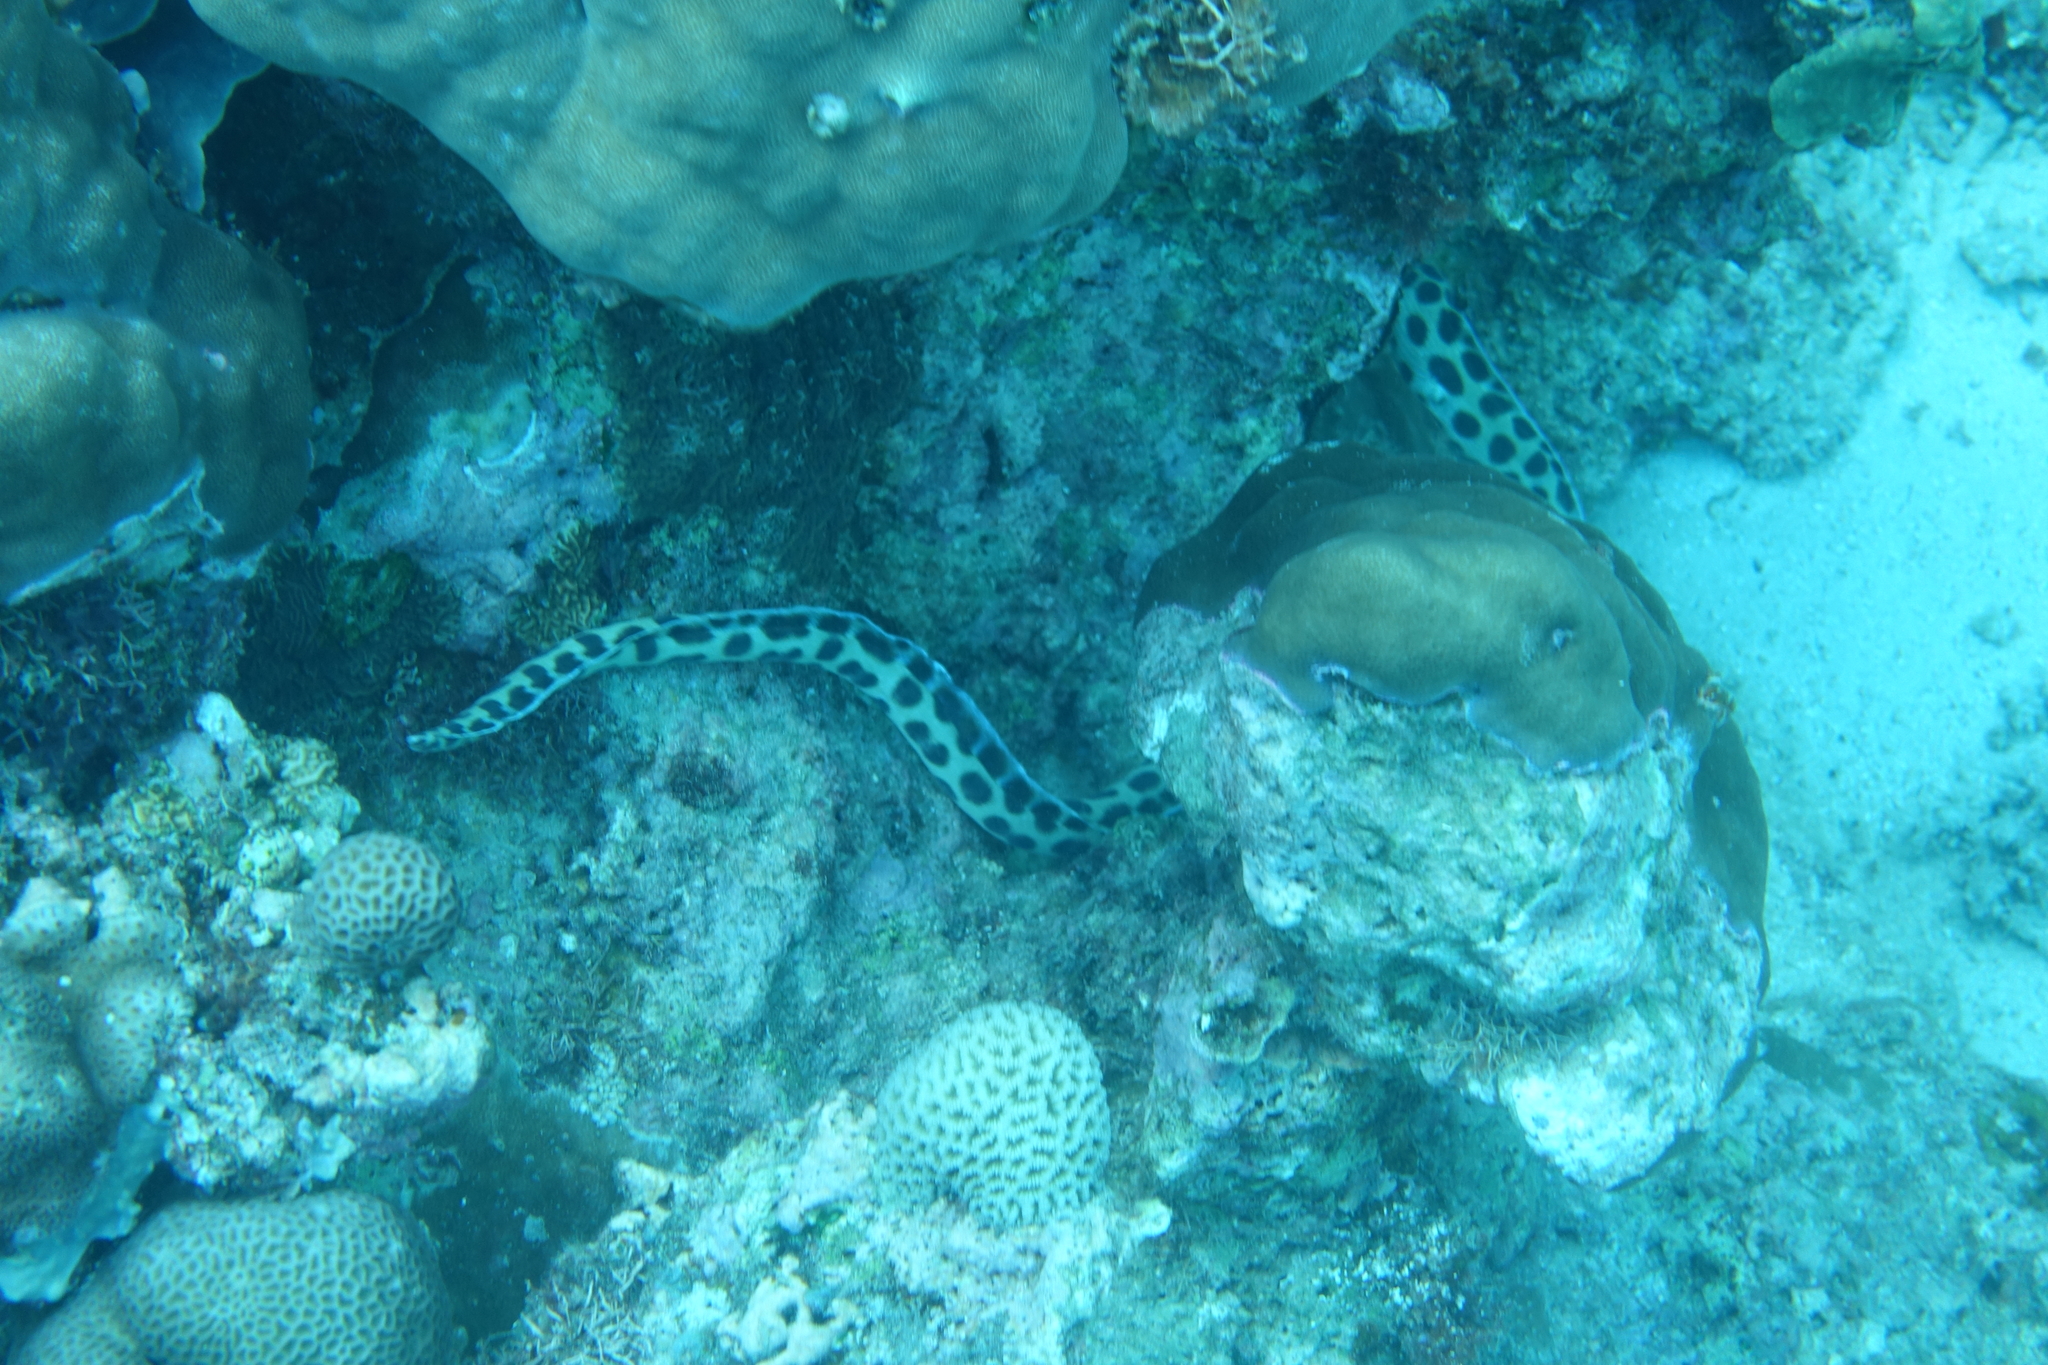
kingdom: Animalia
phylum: Chordata
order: Anguilliformes
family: Ophichthidae
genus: Myrichthys
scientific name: Myrichthys maculosus
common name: Spotted snake eel
